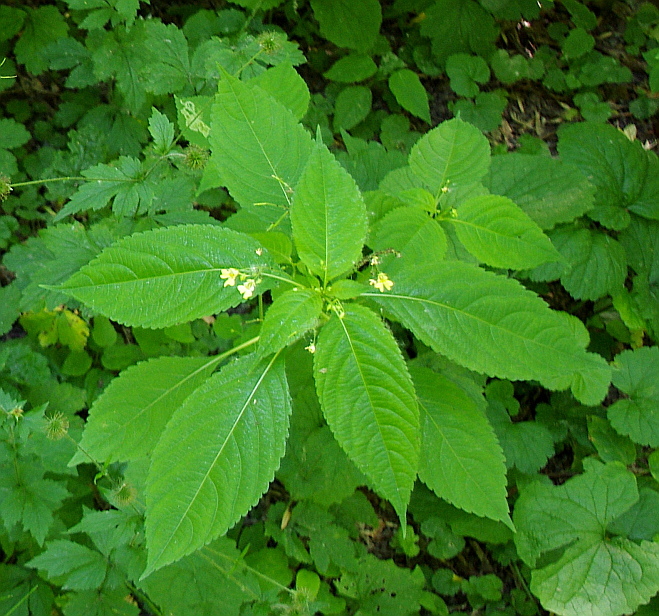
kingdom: Plantae
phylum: Tracheophyta
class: Magnoliopsida
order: Ericales
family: Balsaminaceae
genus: Impatiens
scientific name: Impatiens parviflora
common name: Small balsam
